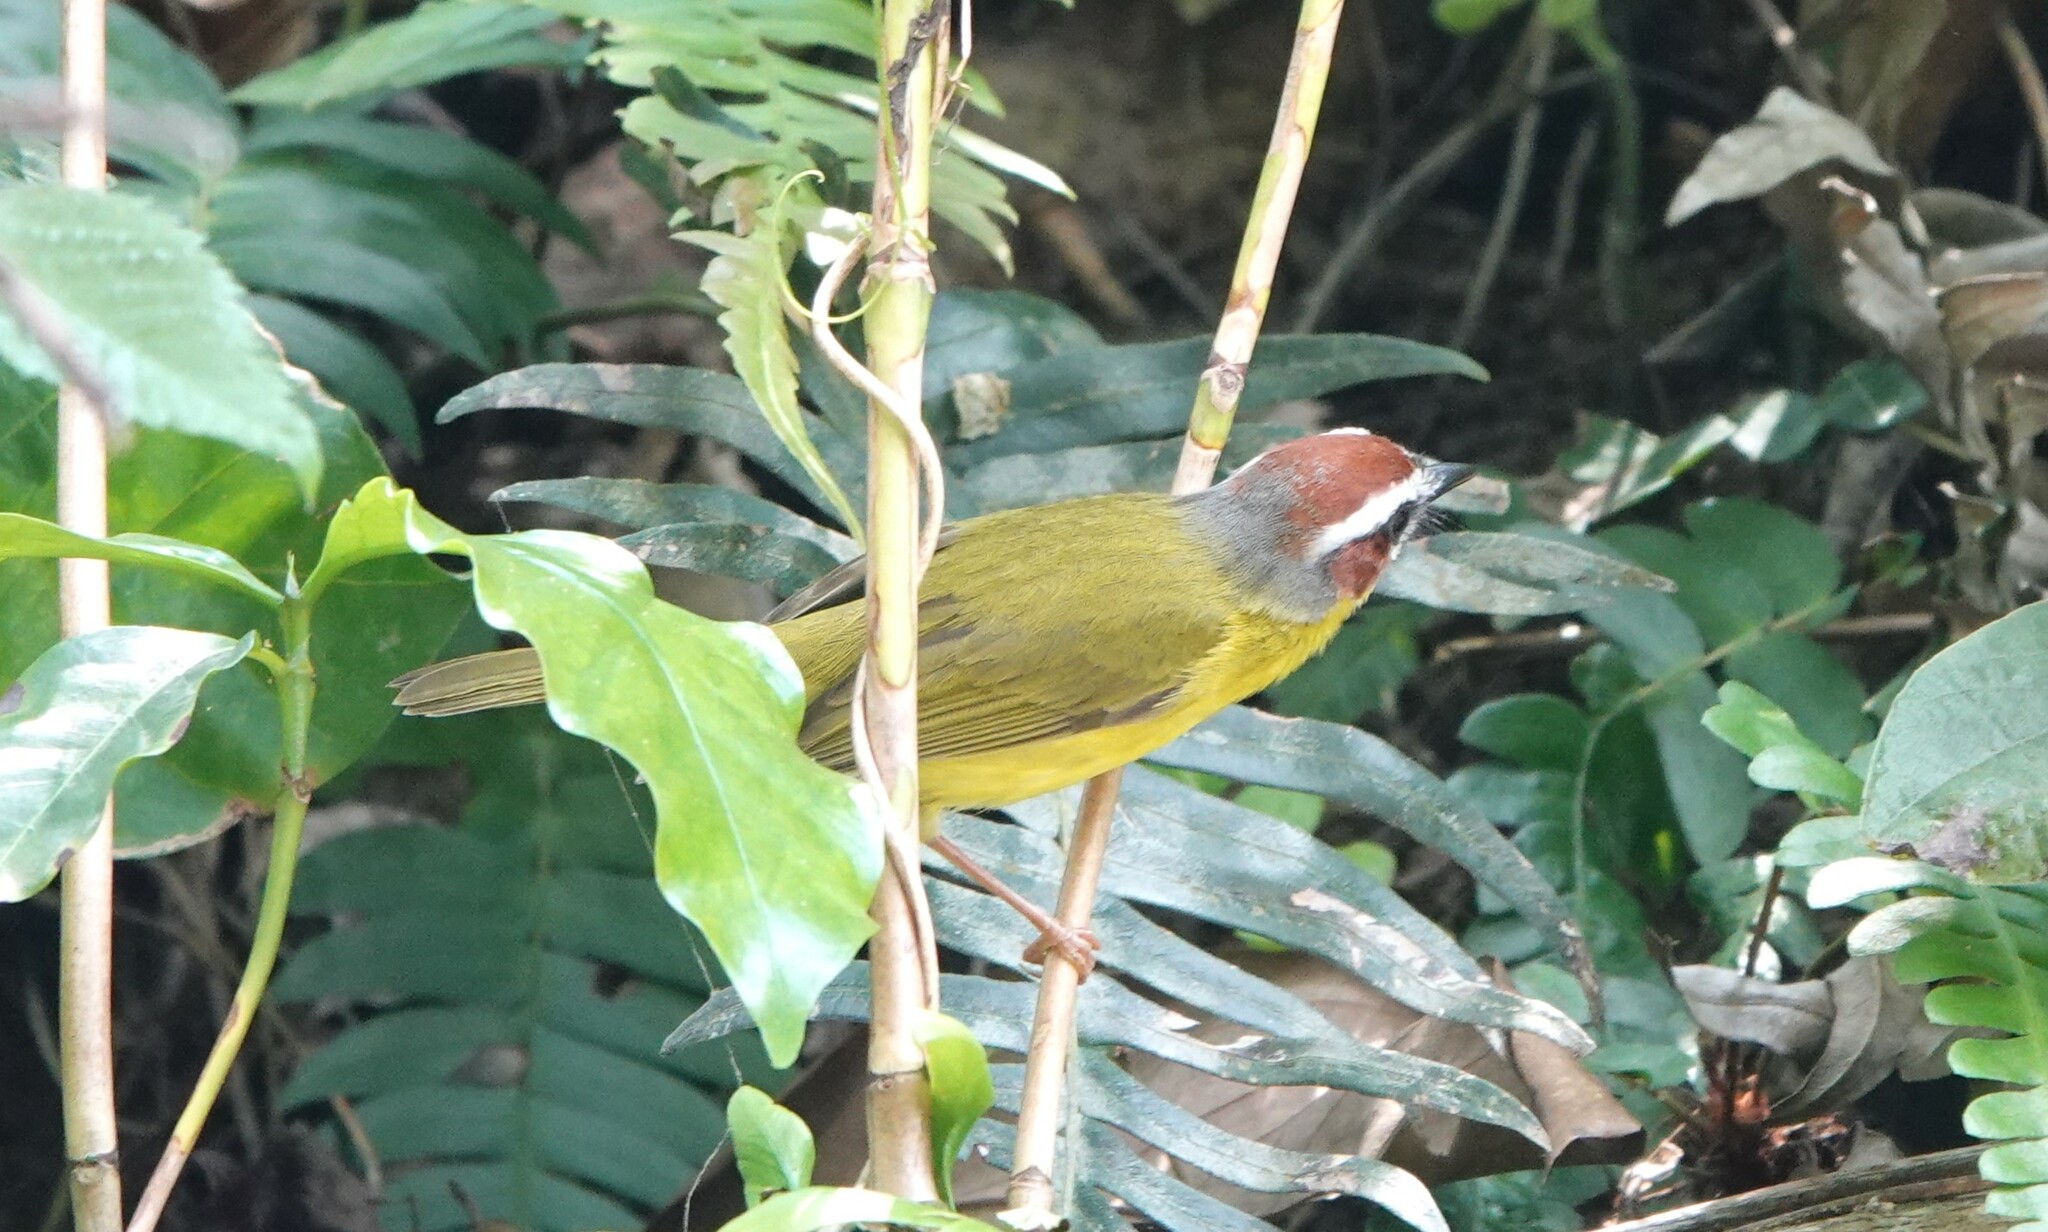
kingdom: Animalia
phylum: Chordata
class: Aves
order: Passeriformes
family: Parulidae
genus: Basileuterus
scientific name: Basileuterus rufifrons
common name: Rufous-capped warbler
